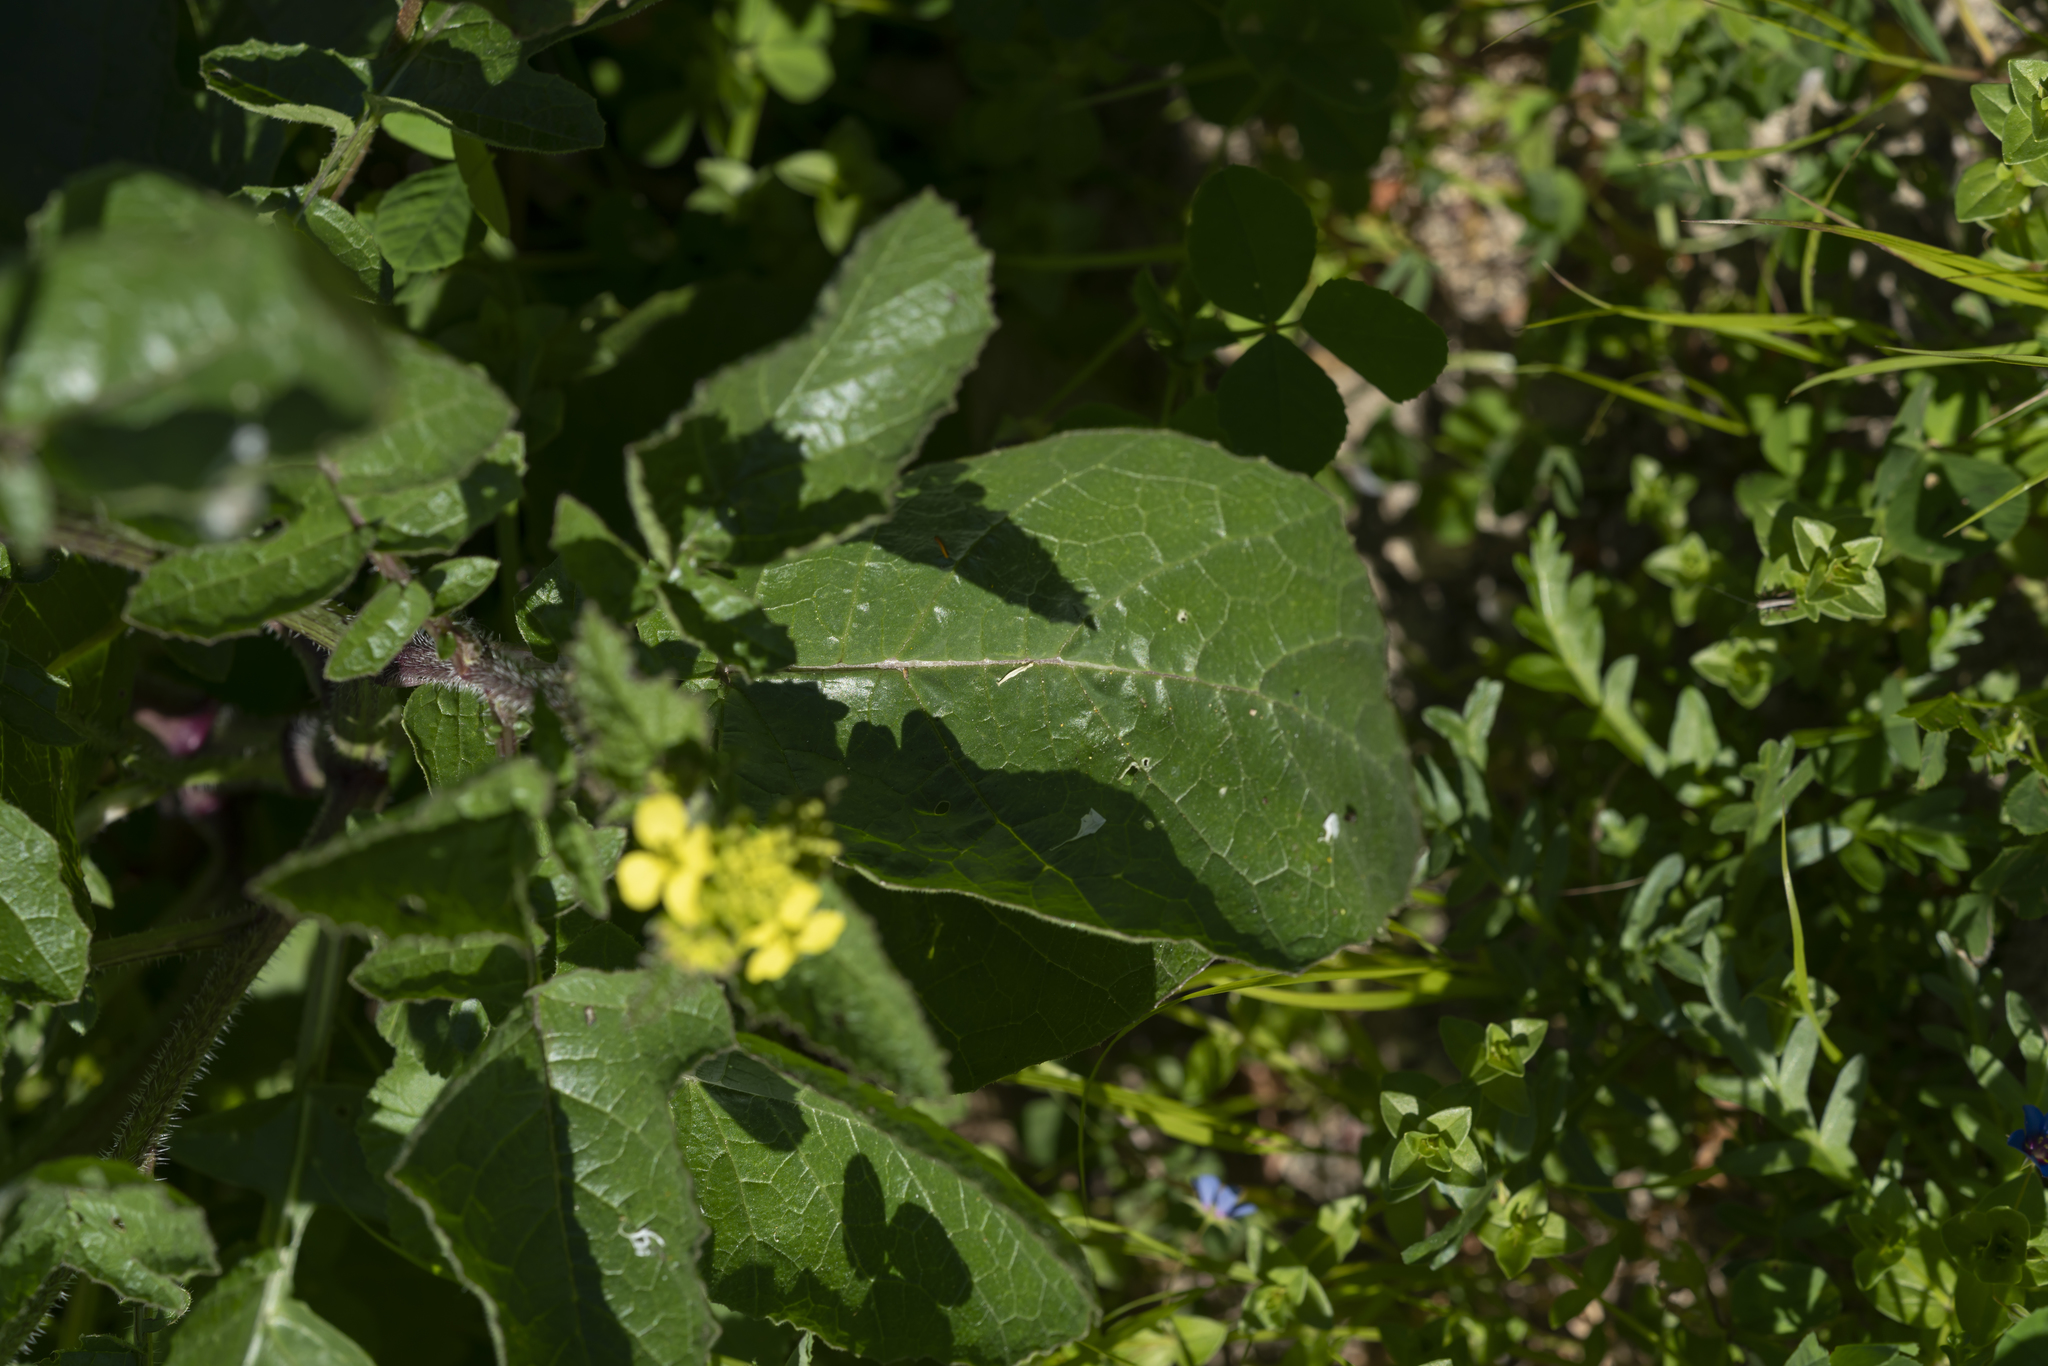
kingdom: Plantae
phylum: Tracheophyta
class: Magnoliopsida
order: Brassicales
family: Brassicaceae
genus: Sinapis
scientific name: Sinapis alba
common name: White mustard
